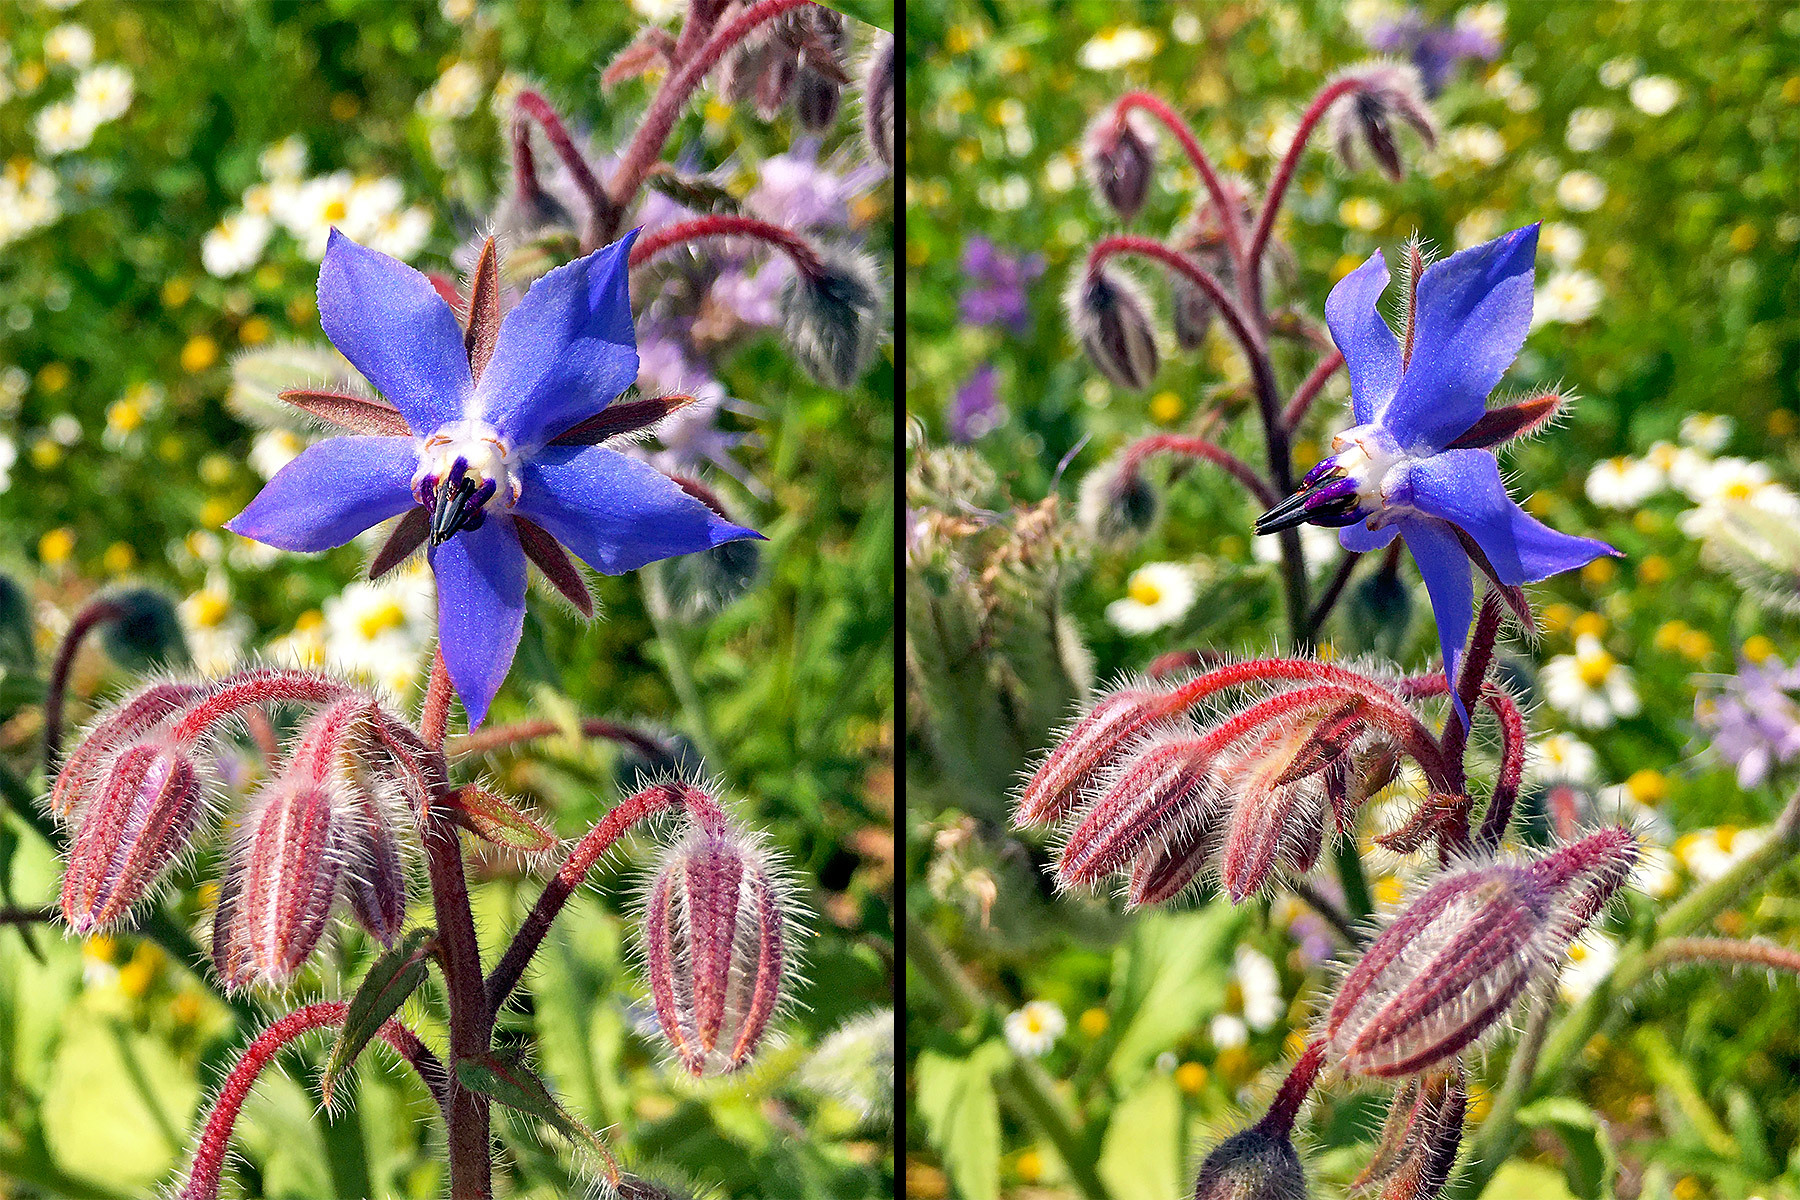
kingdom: Plantae
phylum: Tracheophyta
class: Magnoliopsida
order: Boraginales
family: Boraginaceae
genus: Borago
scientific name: Borago officinalis
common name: Borage
